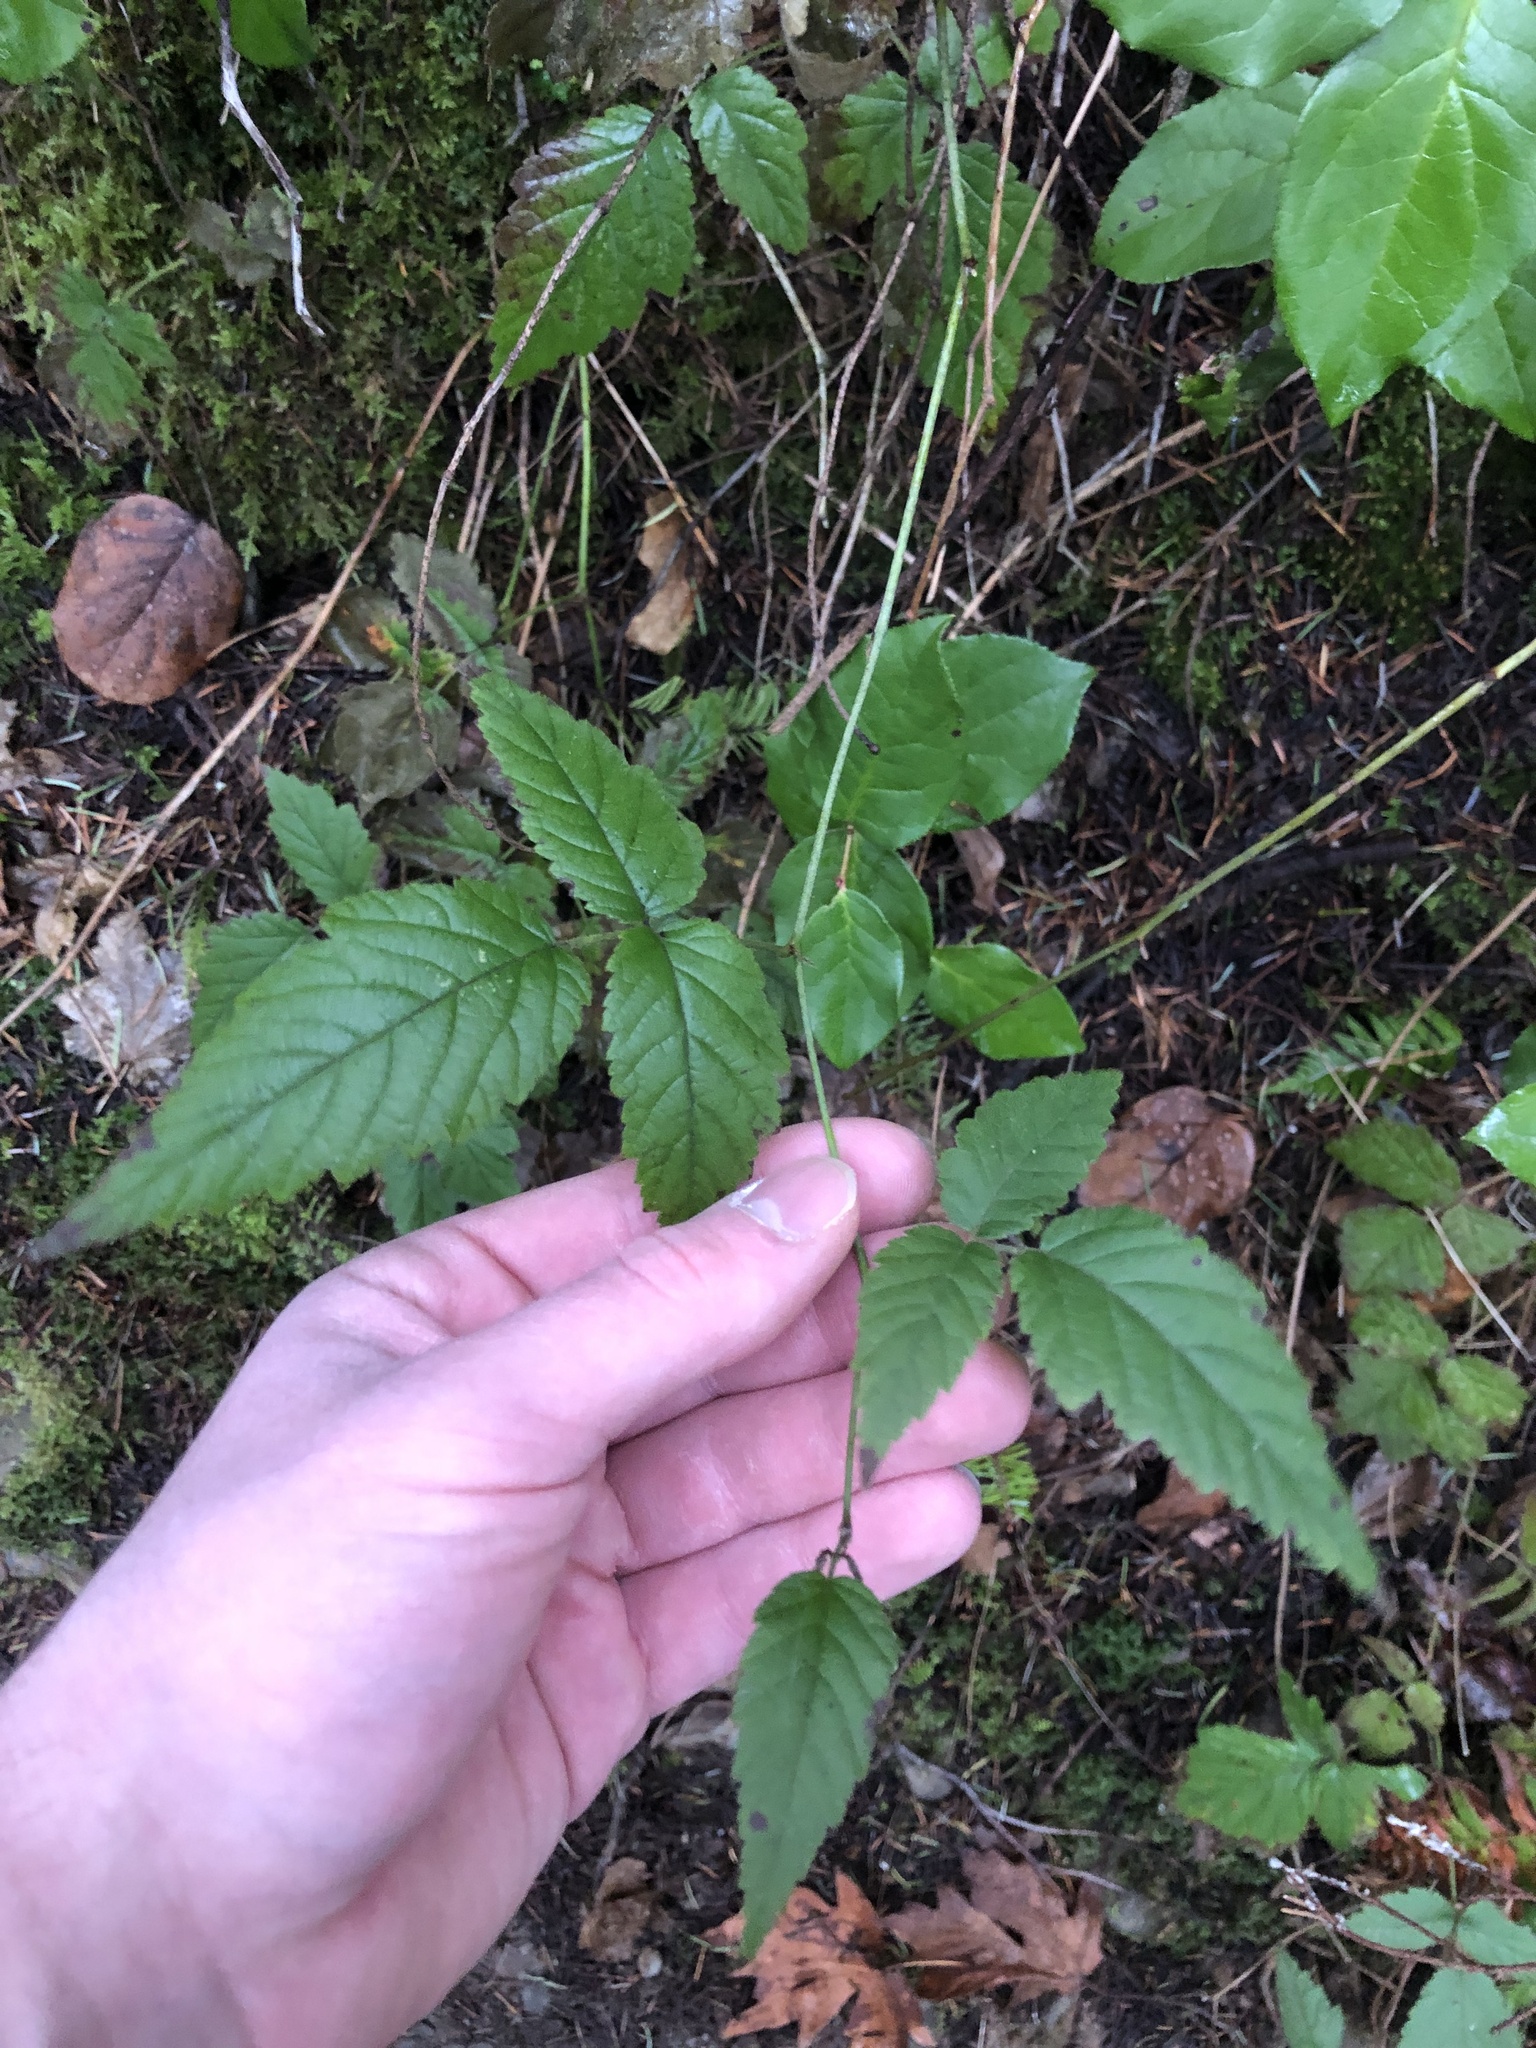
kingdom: Plantae
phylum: Tracheophyta
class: Magnoliopsida
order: Rosales
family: Rosaceae
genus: Rubus
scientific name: Rubus ursinus
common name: Pacific blackberry
